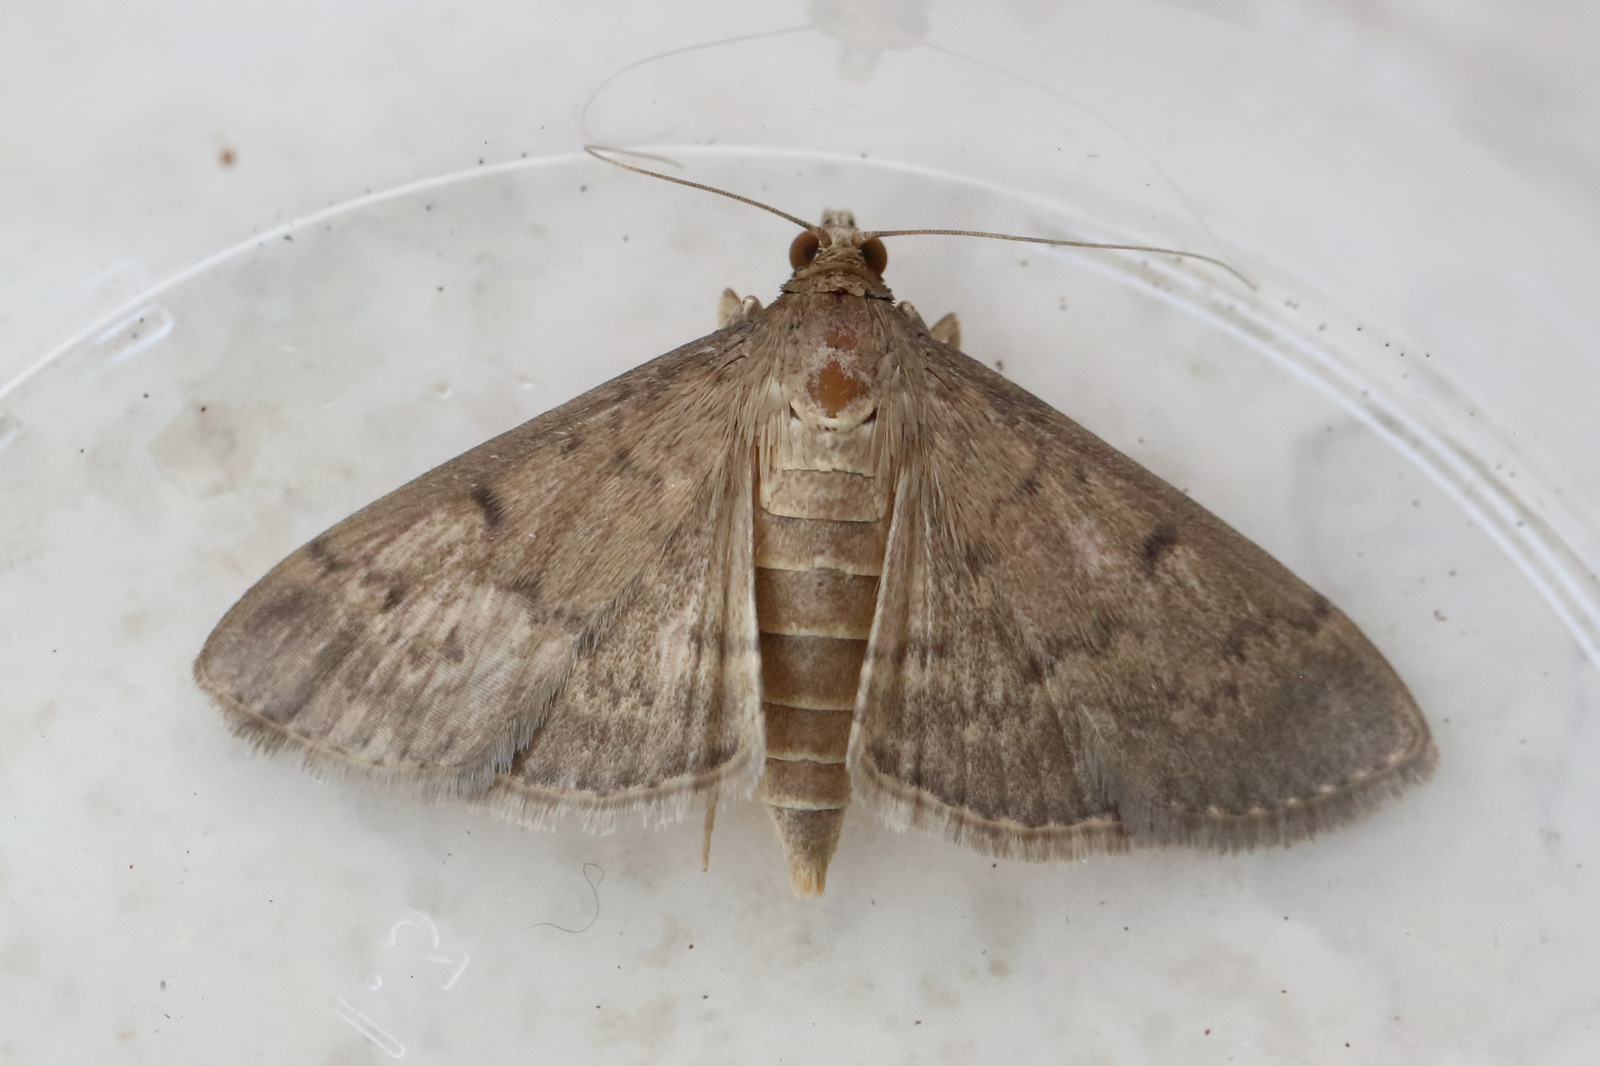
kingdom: Animalia
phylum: Arthropoda
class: Insecta
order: Lepidoptera
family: Crambidae
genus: Herpetogramma
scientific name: Herpetogramma licarsisalis
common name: Grass webworm
